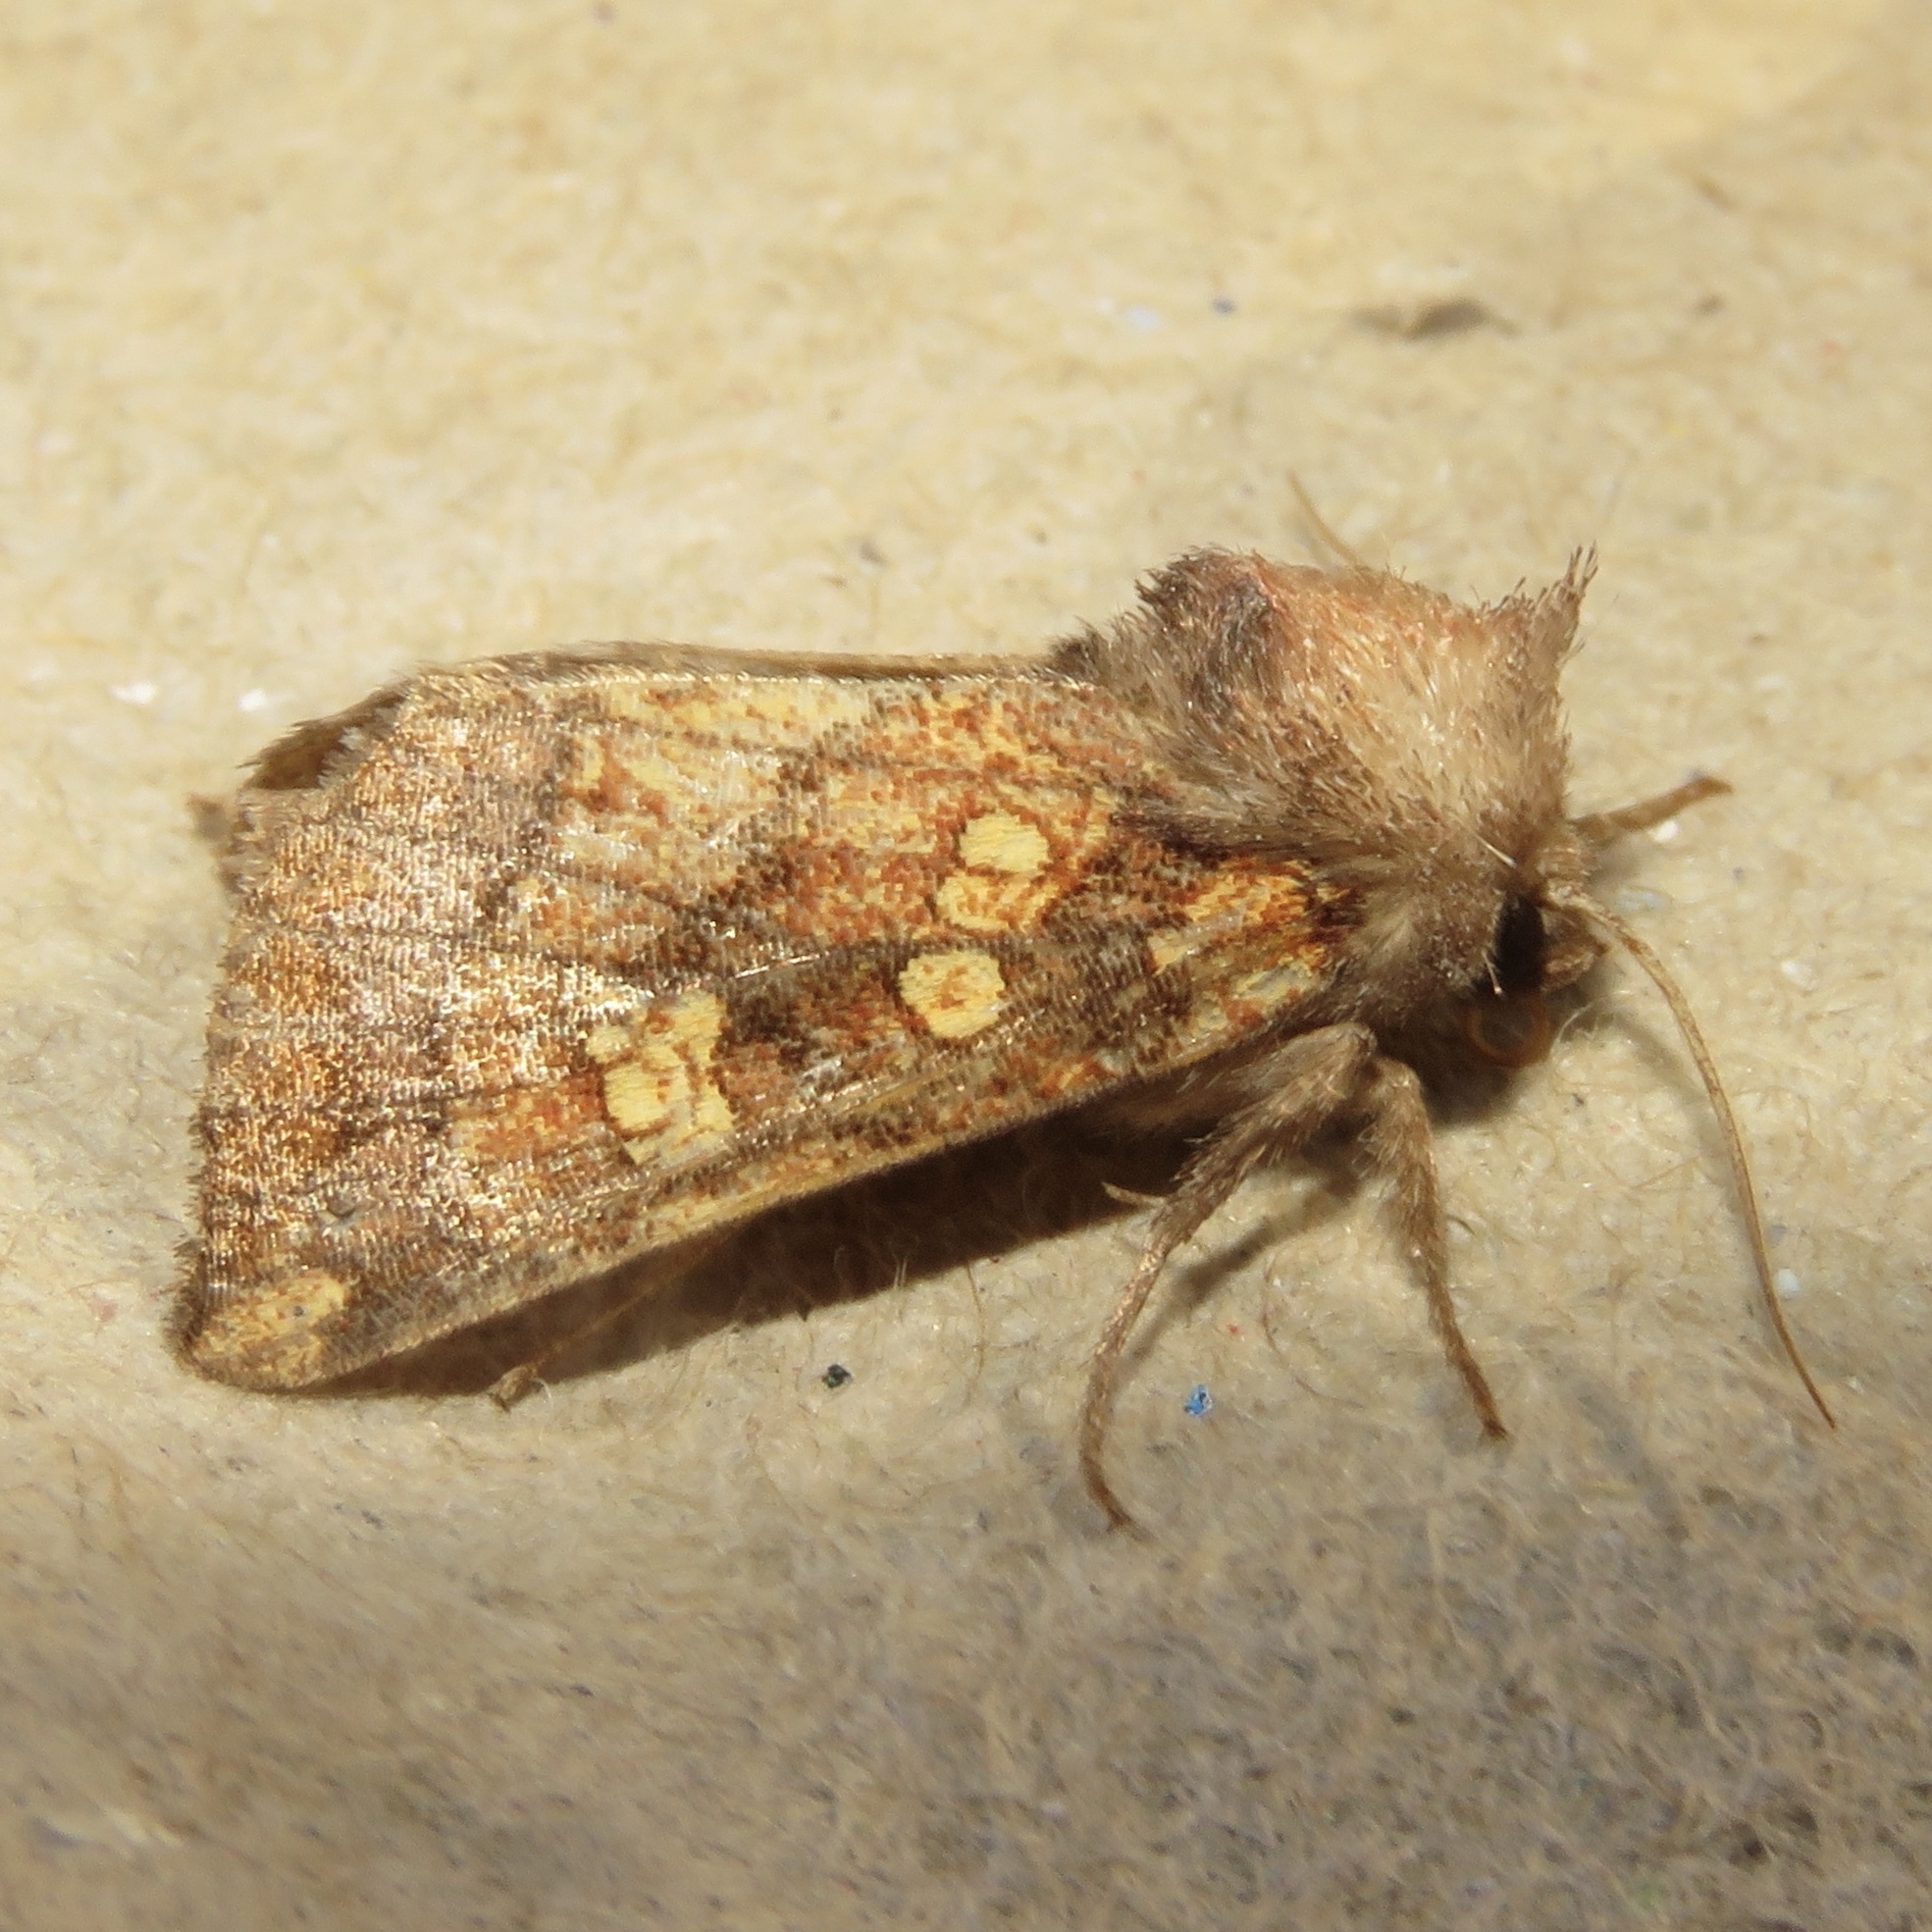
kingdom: Animalia
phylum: Arthropoda
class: Insecta
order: Lepidoptera
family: Noctuidae
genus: Papaipema
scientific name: Papaipema impecuniosa
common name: Aster borer moth
